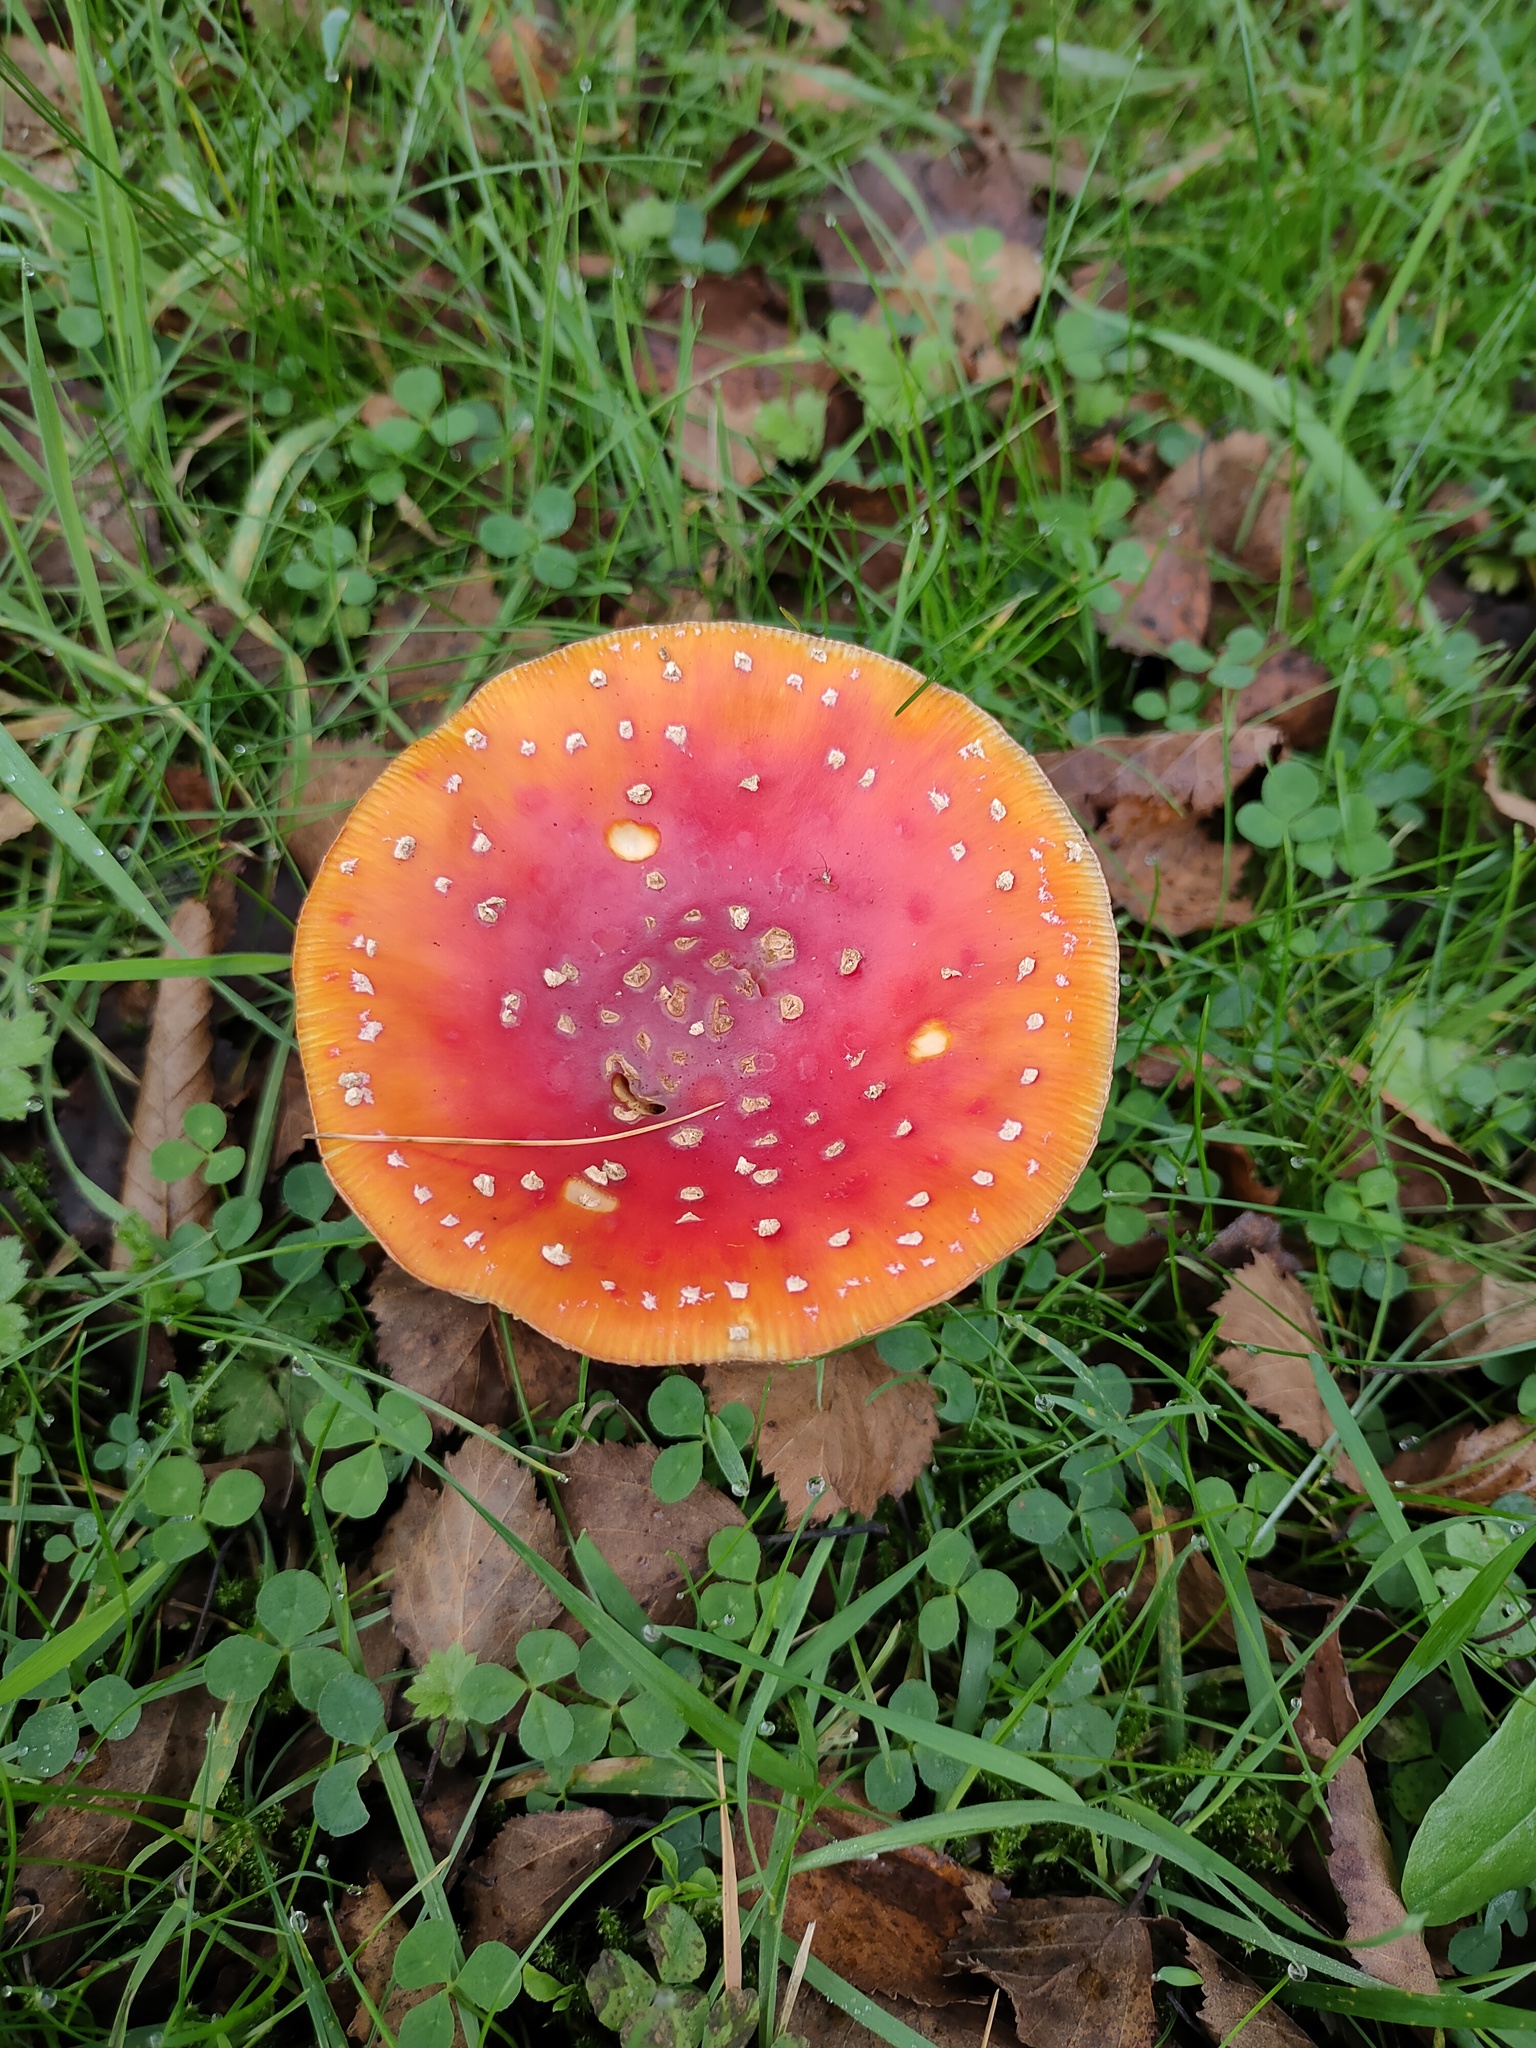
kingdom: Fungi
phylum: Basidiomycota
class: Agaricomycetes
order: Agaricales
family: Amanitaceae
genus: Amanita
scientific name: Amanita muscaria
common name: Fly agaric
